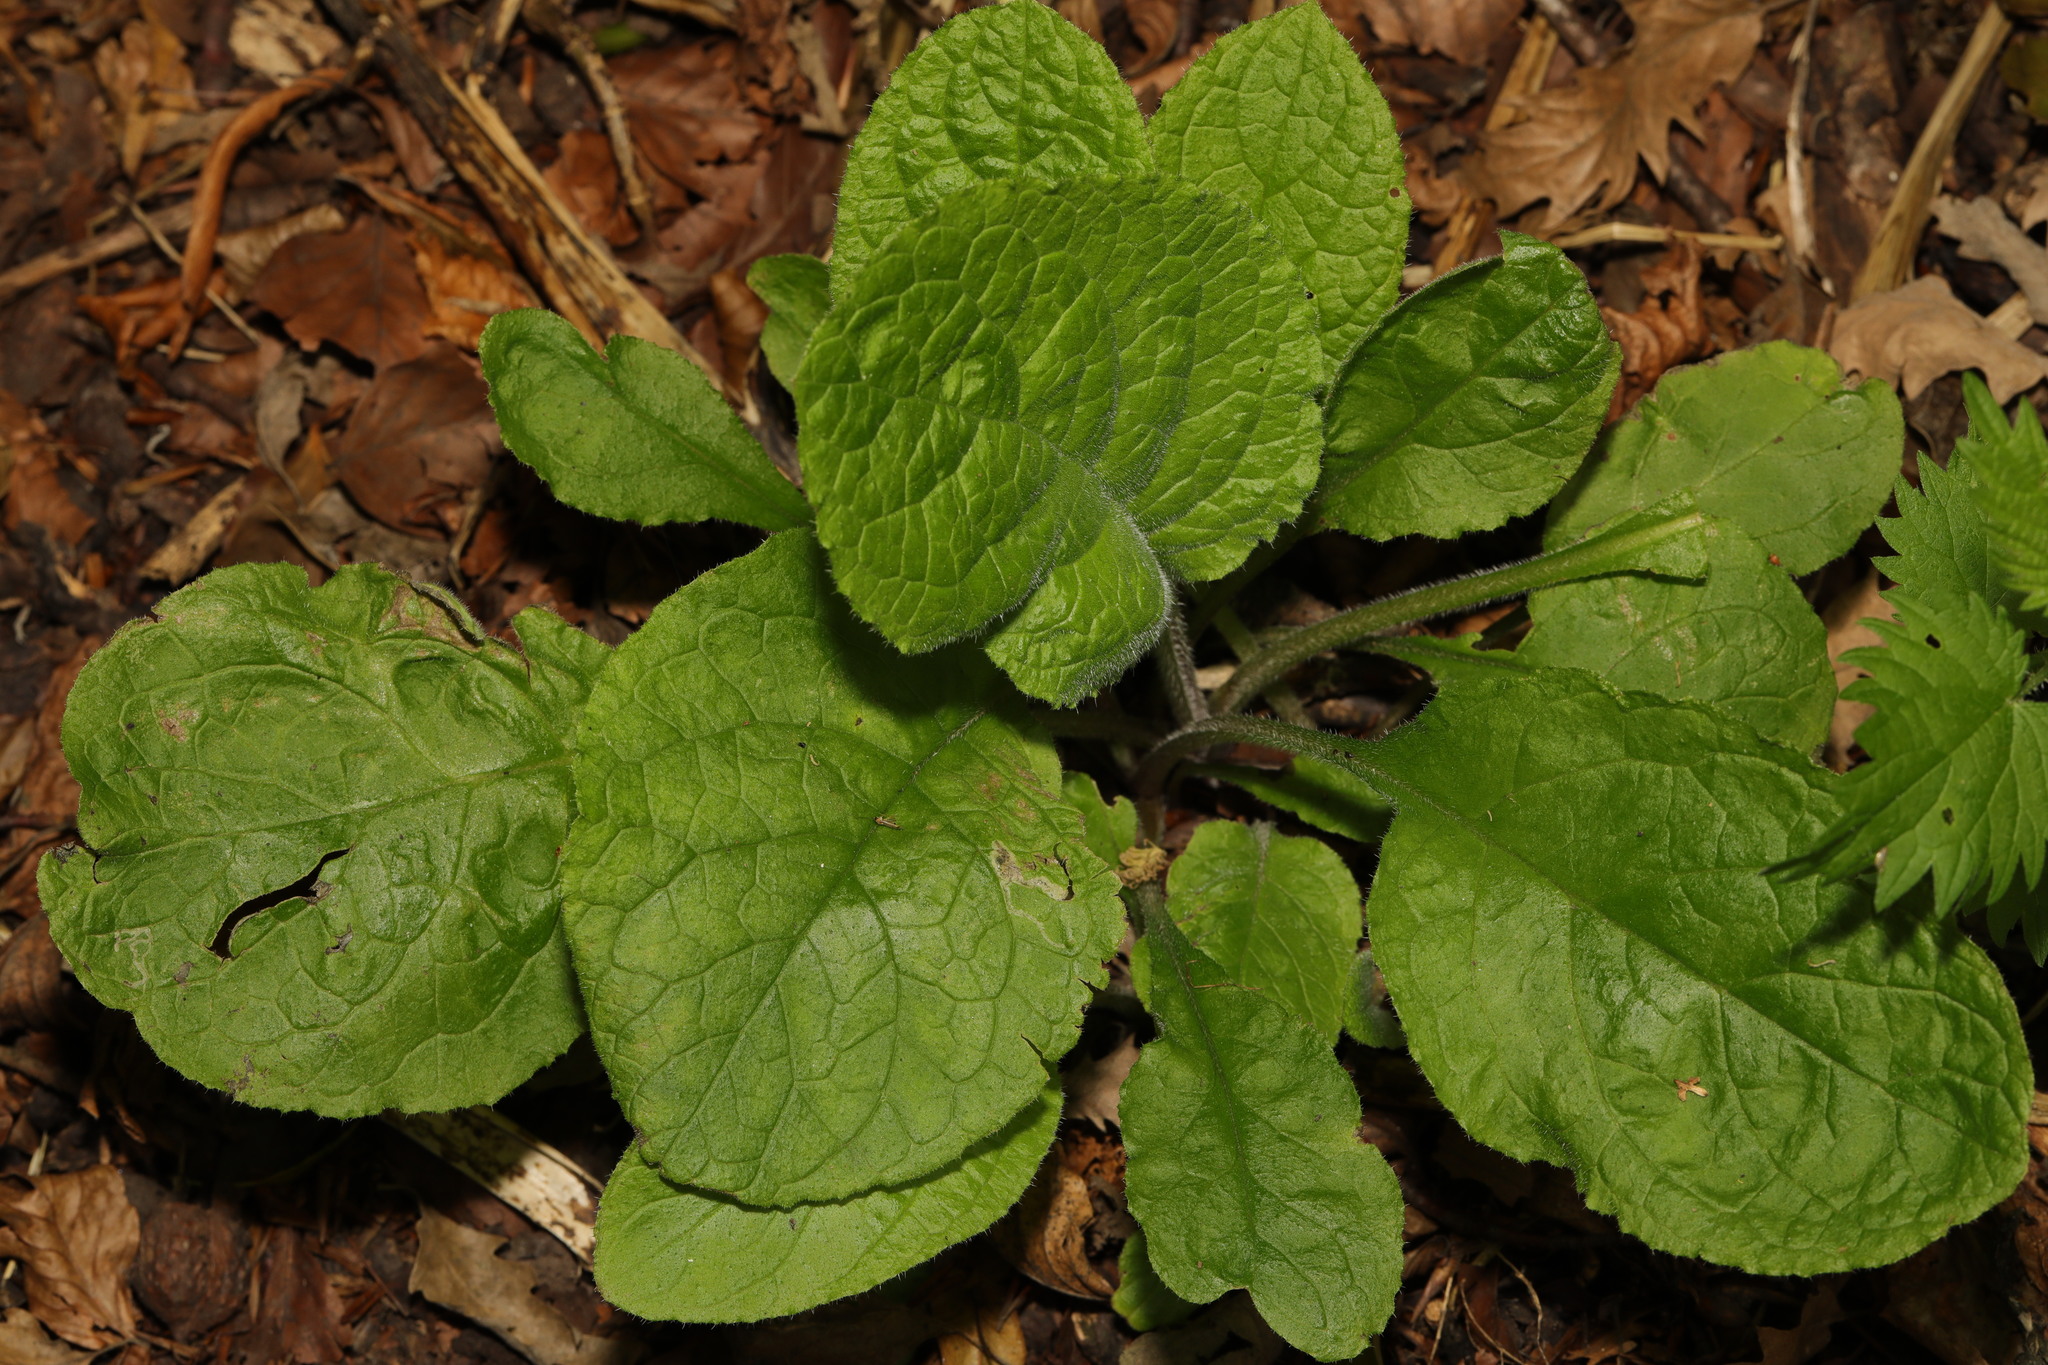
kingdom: Plantae
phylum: Tracheophyta
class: Magnoliopsida
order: Lamiales
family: Plantaginaceae
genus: Digitalis
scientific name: Digitalis purpurea
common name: Foxglove
